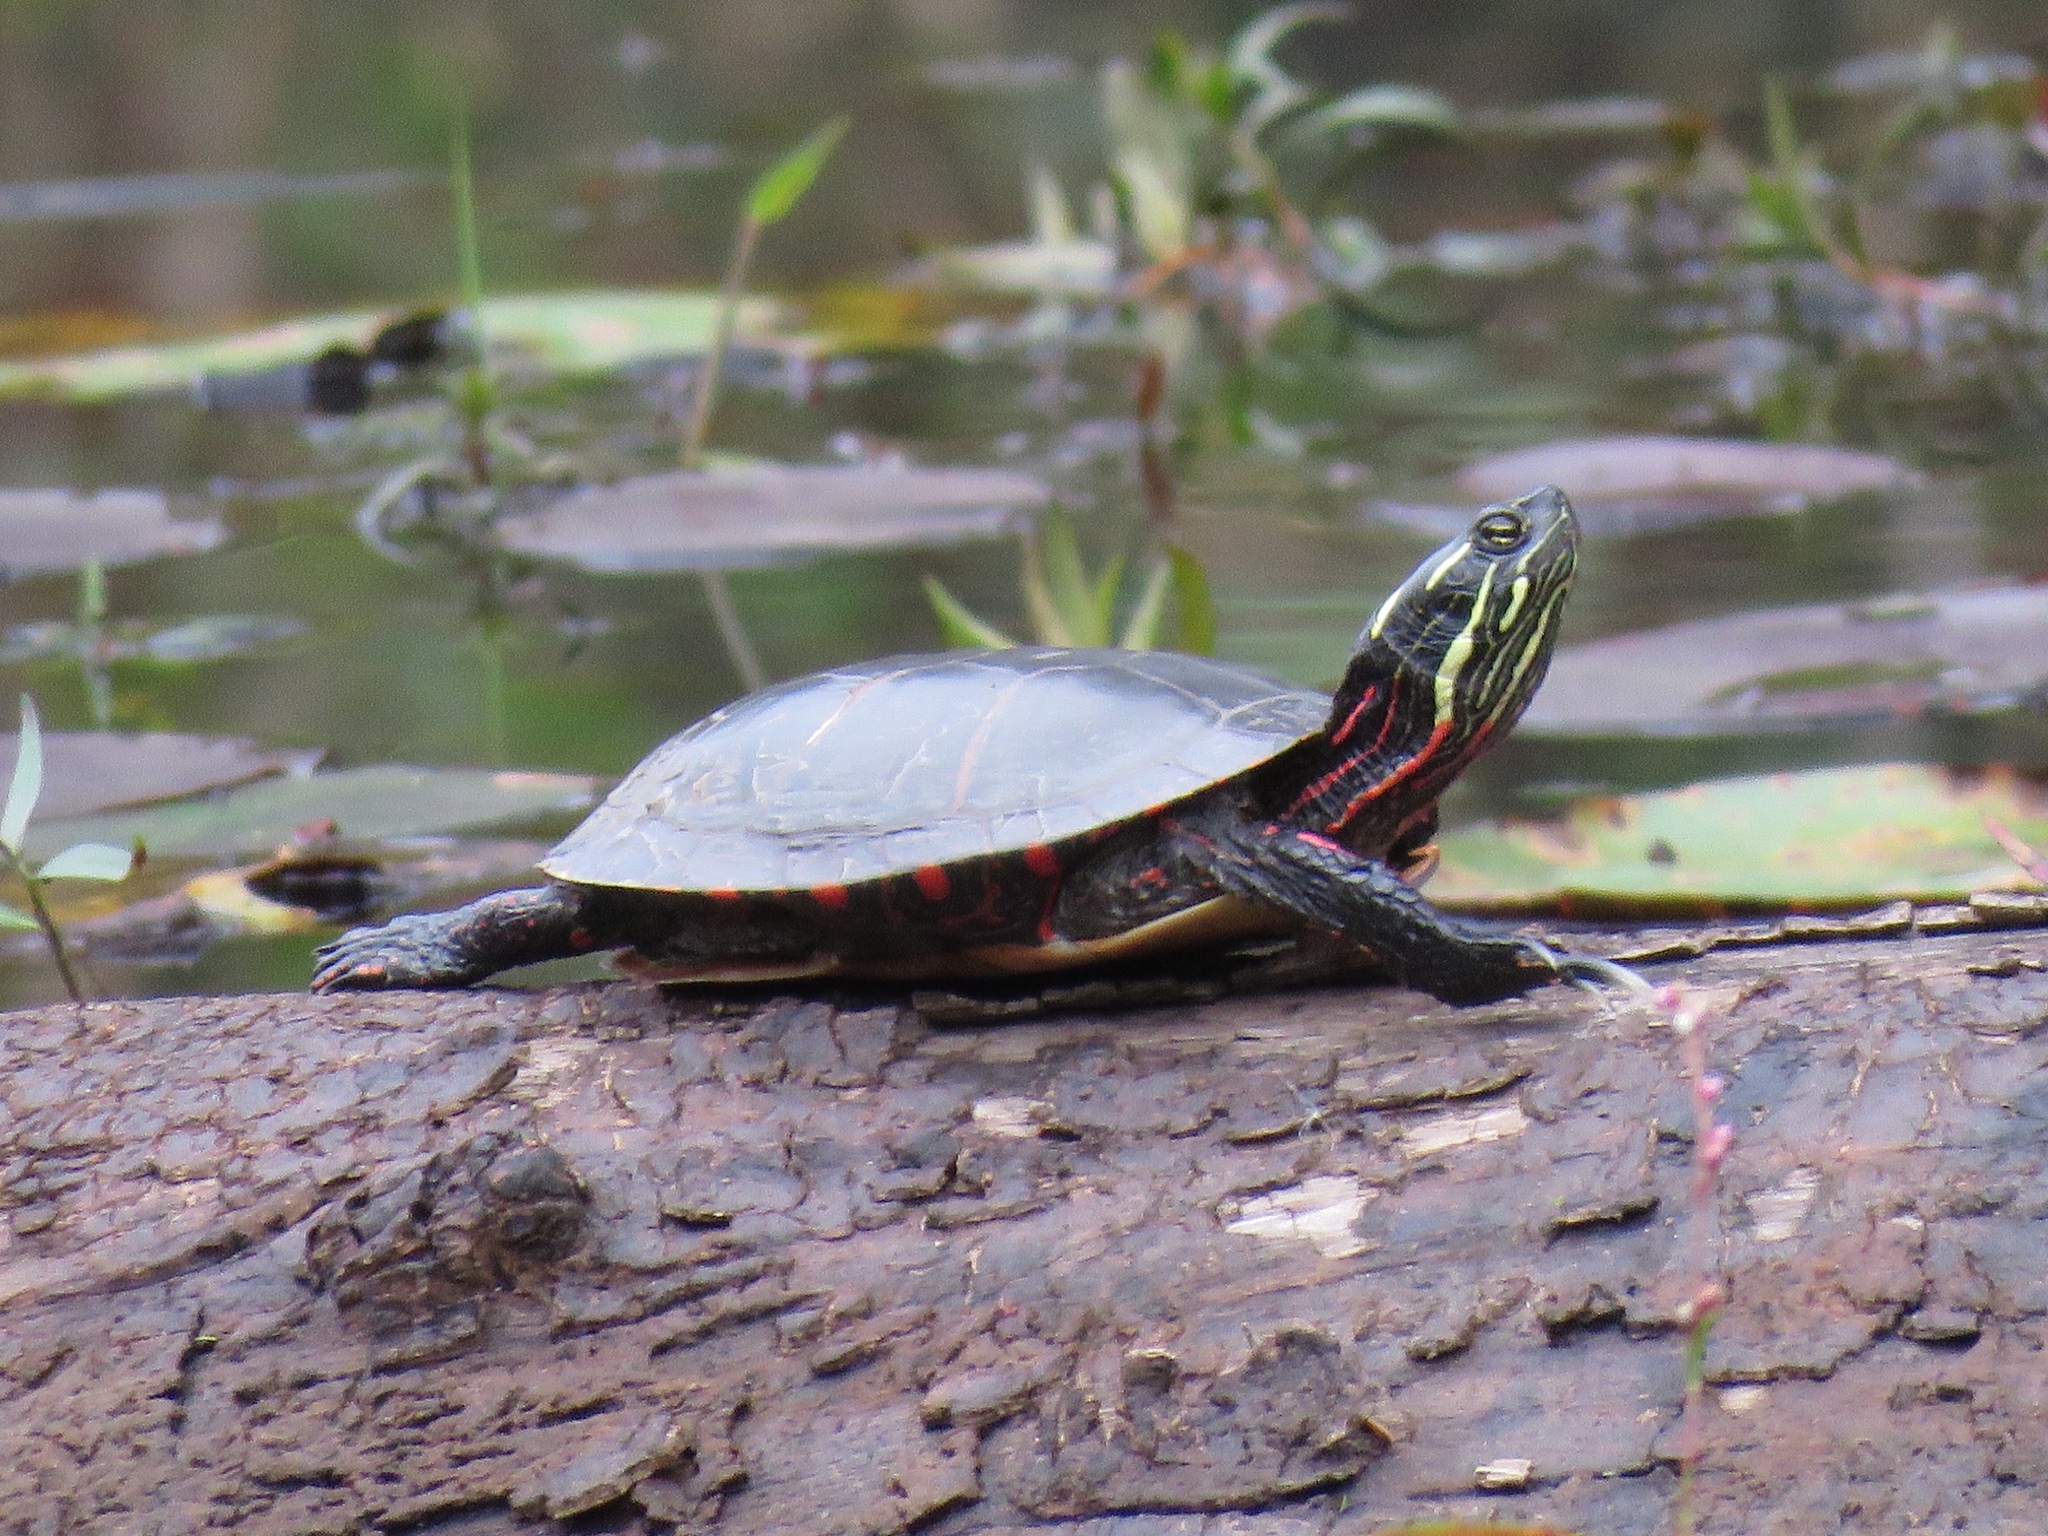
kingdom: Animalia
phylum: Chordata
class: Testudines
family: Emydidae
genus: Chrysemys
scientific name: Chrysemys picta
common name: Painted turtle
